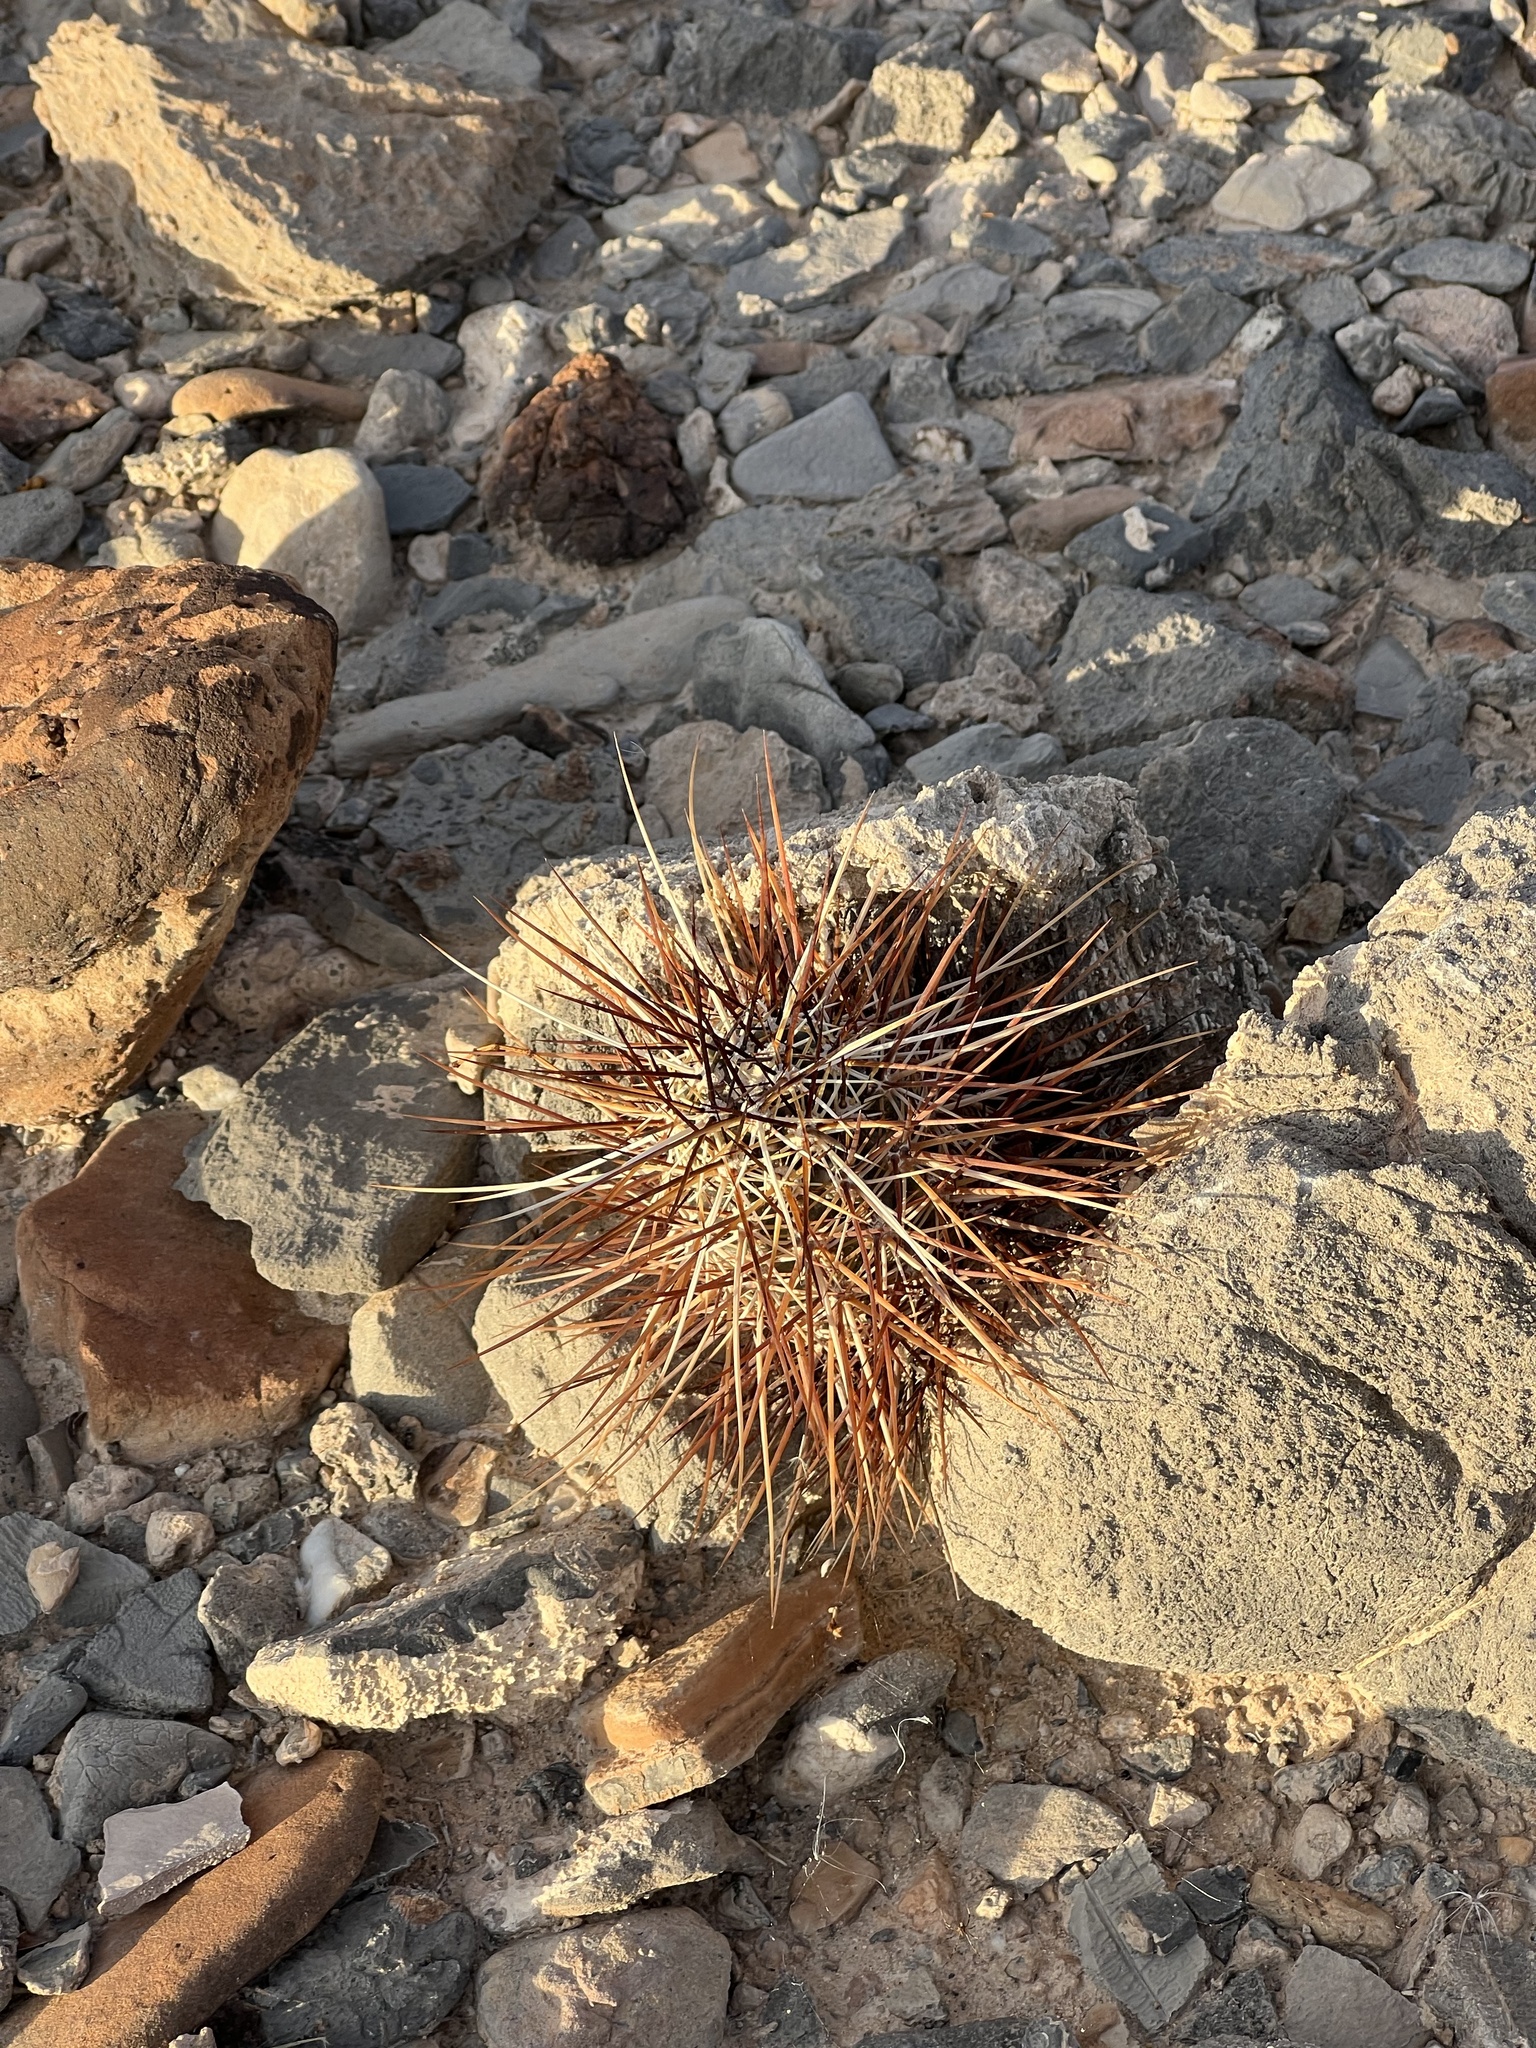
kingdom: Plantae
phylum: Tracheophyta
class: Magnoliopsida
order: Caryophyllales
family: Cactaceae
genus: Echinocereus
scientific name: Echinocereus engelmannii
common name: Engelmann's hedgehog cactus
